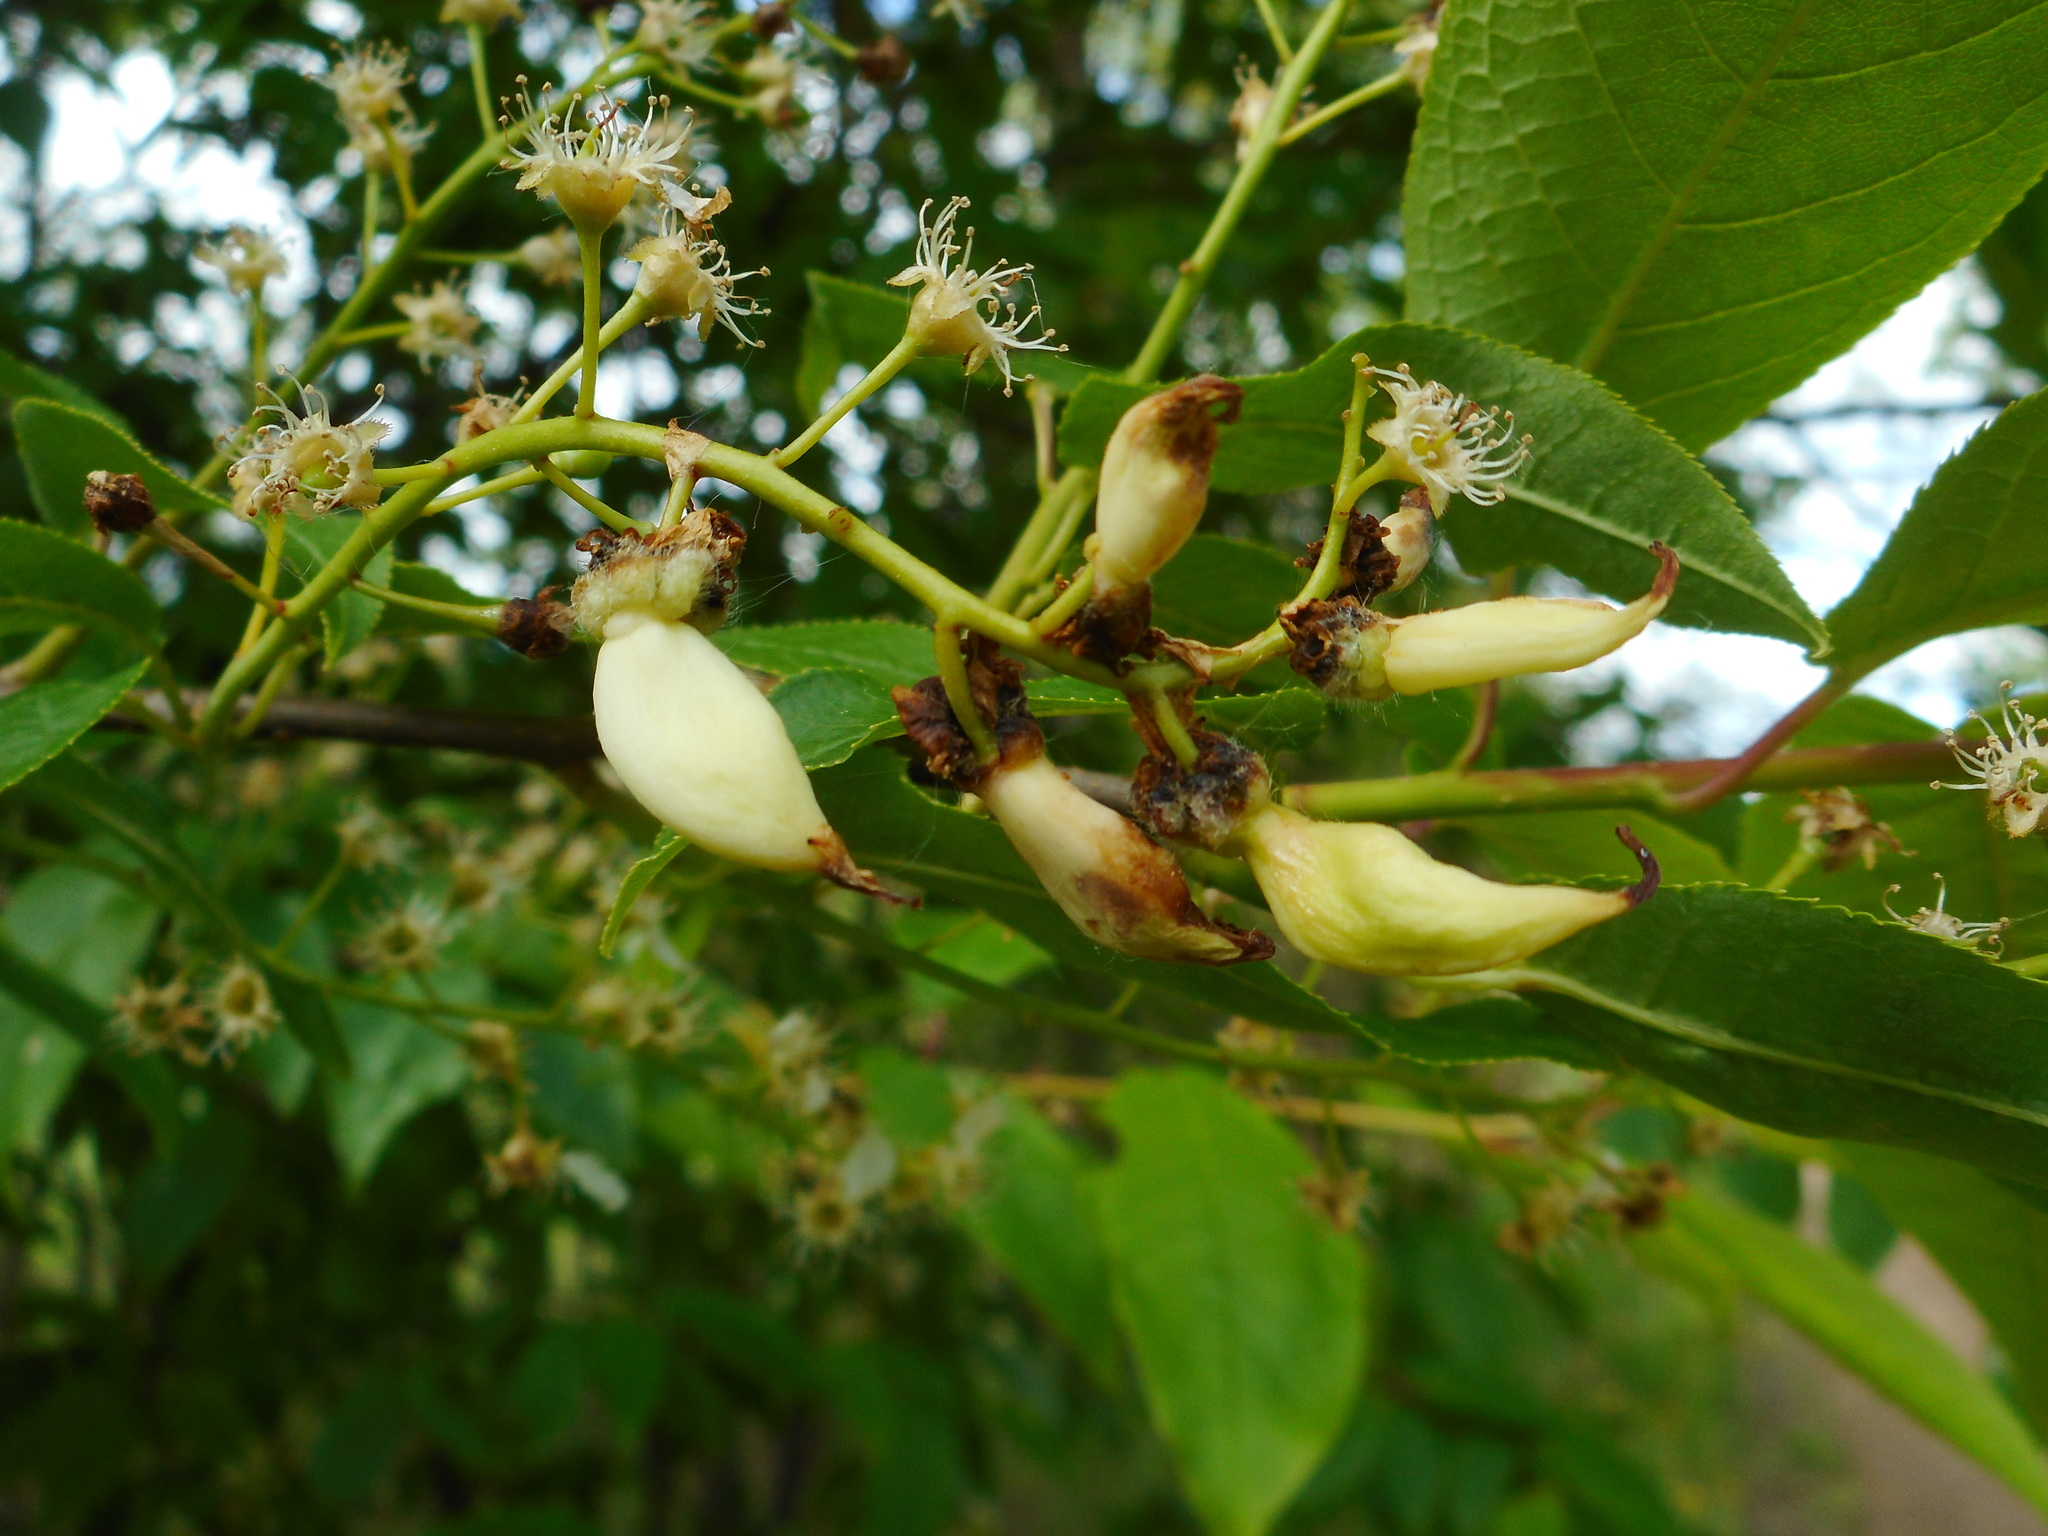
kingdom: Fungi
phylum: Ascomycota
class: Taphrinomycetes
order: Taphrinales
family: Taphrinaceae
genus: Taphrina
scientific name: Taphrina padi
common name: Bird cherry pocket
